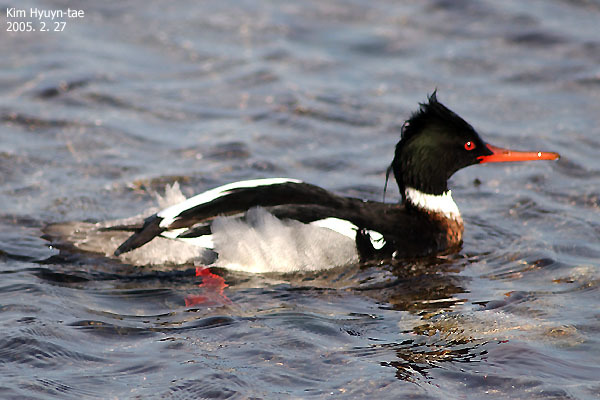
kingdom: Animalia
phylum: Chordata
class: Aves
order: Anseriformes
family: Anatidae
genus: Mergus
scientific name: Mergus serrator
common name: Red-breasted merganser
